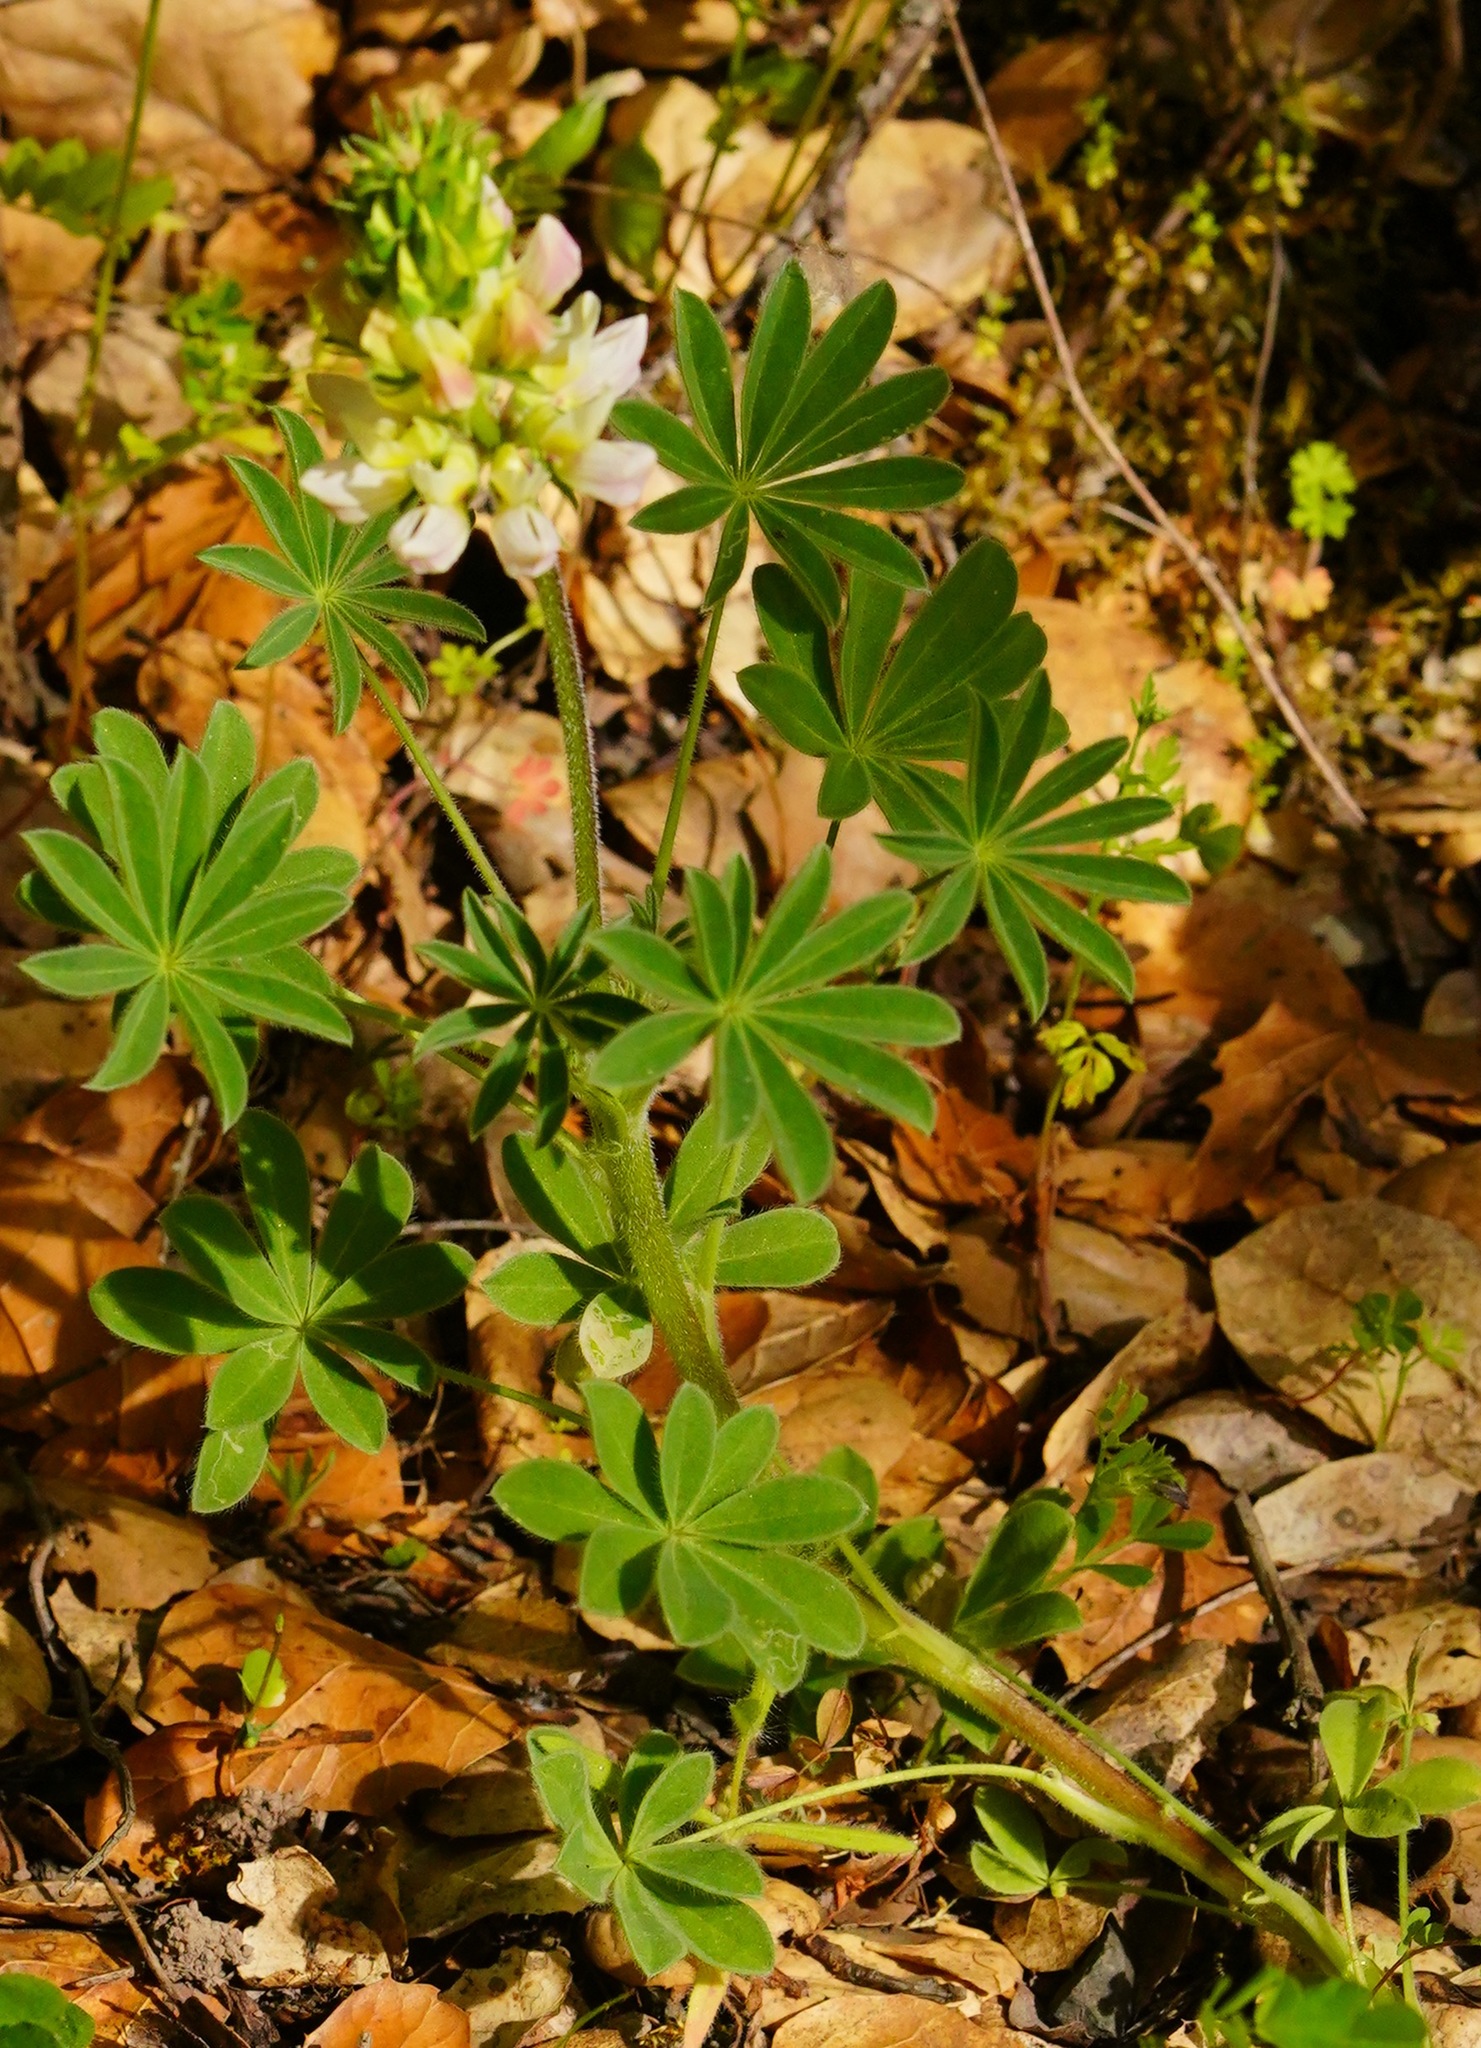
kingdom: Plantae
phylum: Tracheophyta
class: Magnoliopsida
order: Fabales
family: Fabaceae
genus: Lupinus
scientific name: Lupinus microcarpus
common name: Chick lupine
